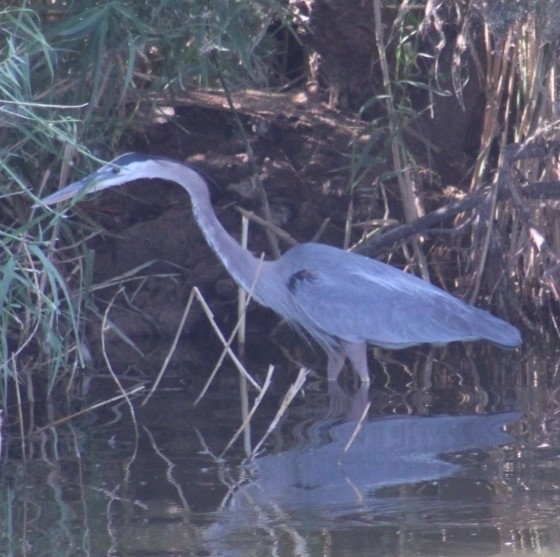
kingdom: Animalia
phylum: Chordata
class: Aves
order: Pelecaniformes
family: Ardeidae
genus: Ardea
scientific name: Ardea herodias
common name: Great blue heron
